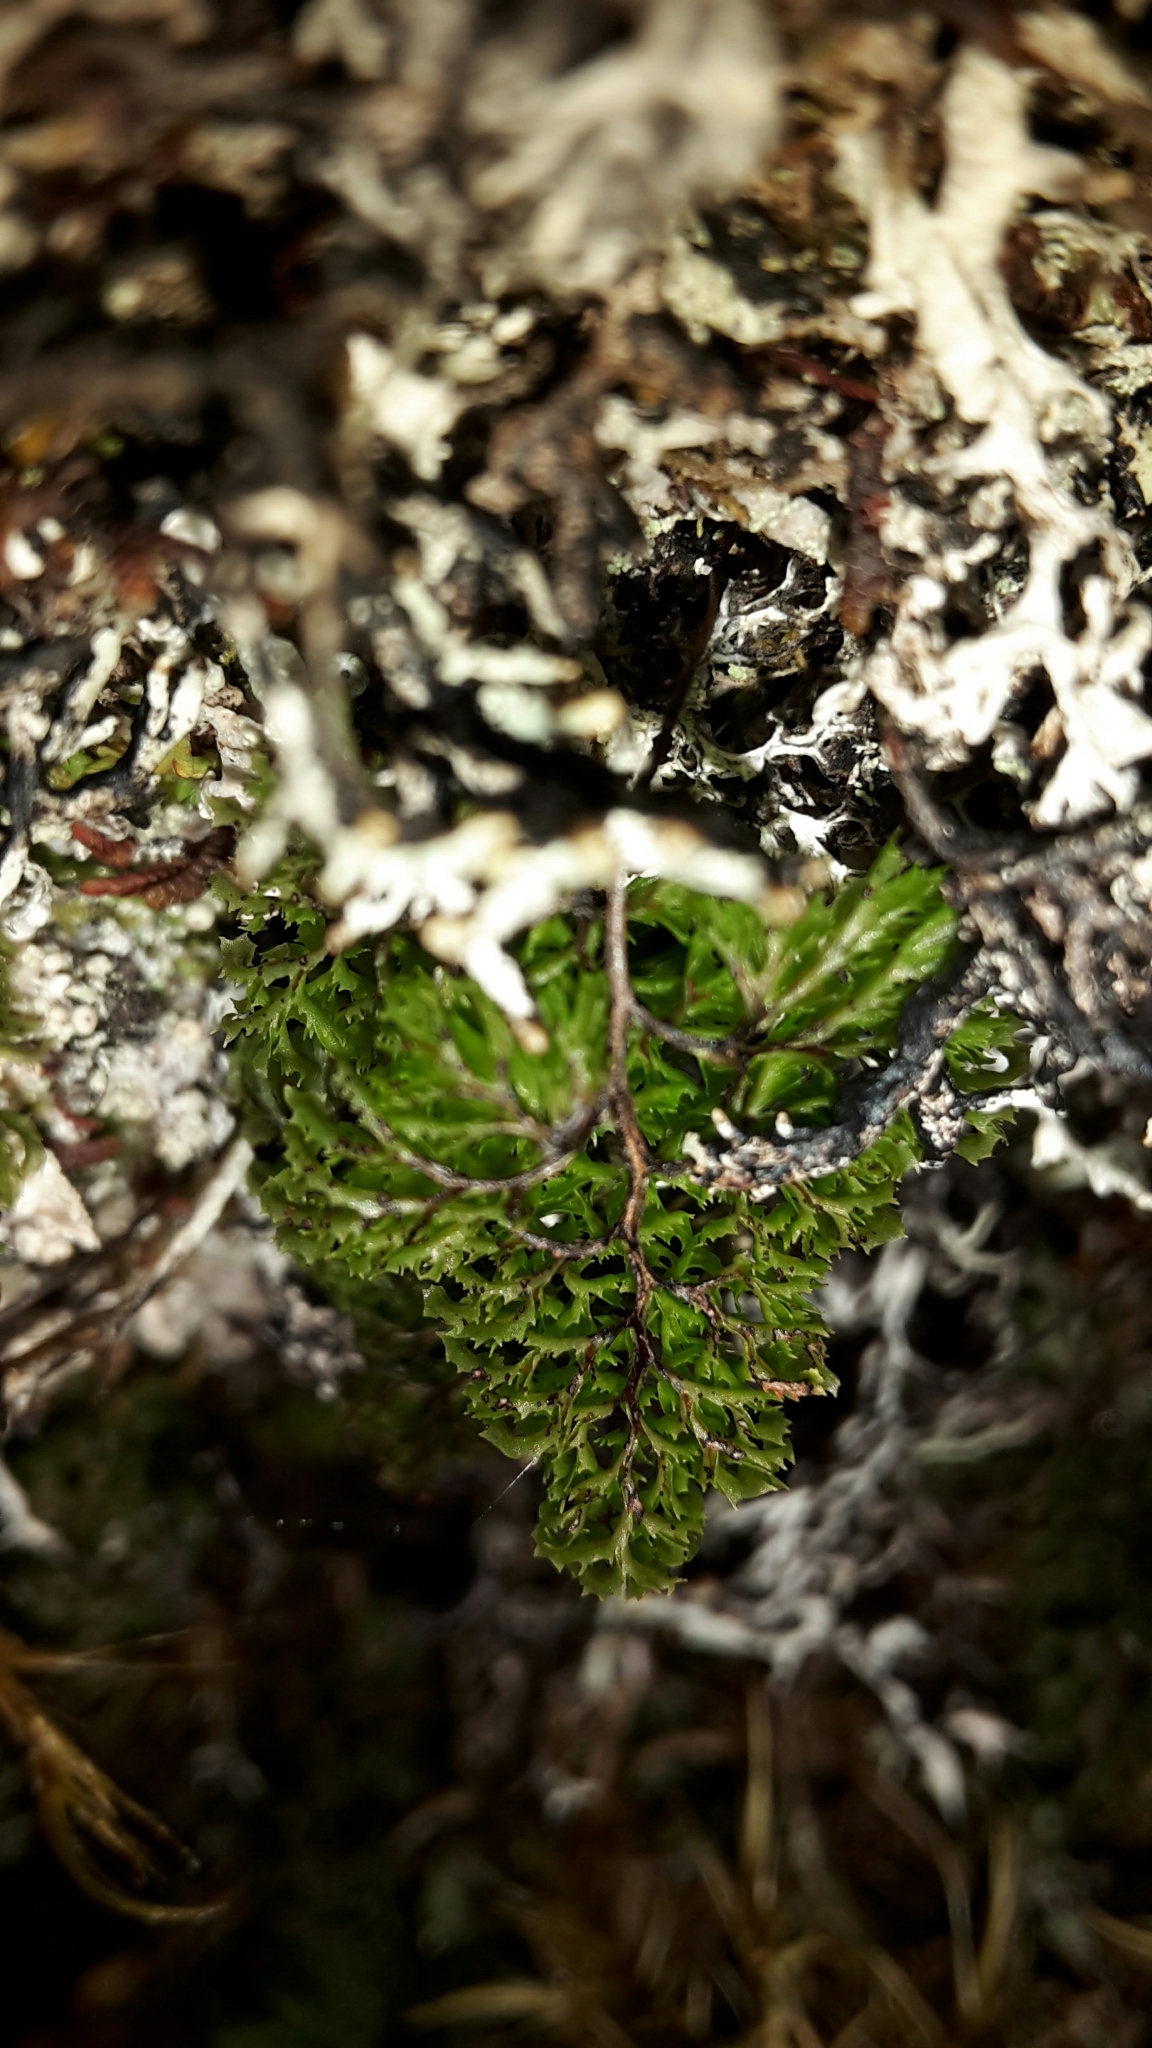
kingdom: Plantae
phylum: Tracheophyta
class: Polypodiopsida
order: Hymenophyllales
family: Hymenophyllaceae
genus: Hymenophyllum
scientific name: Hymenophyllum multifidum
